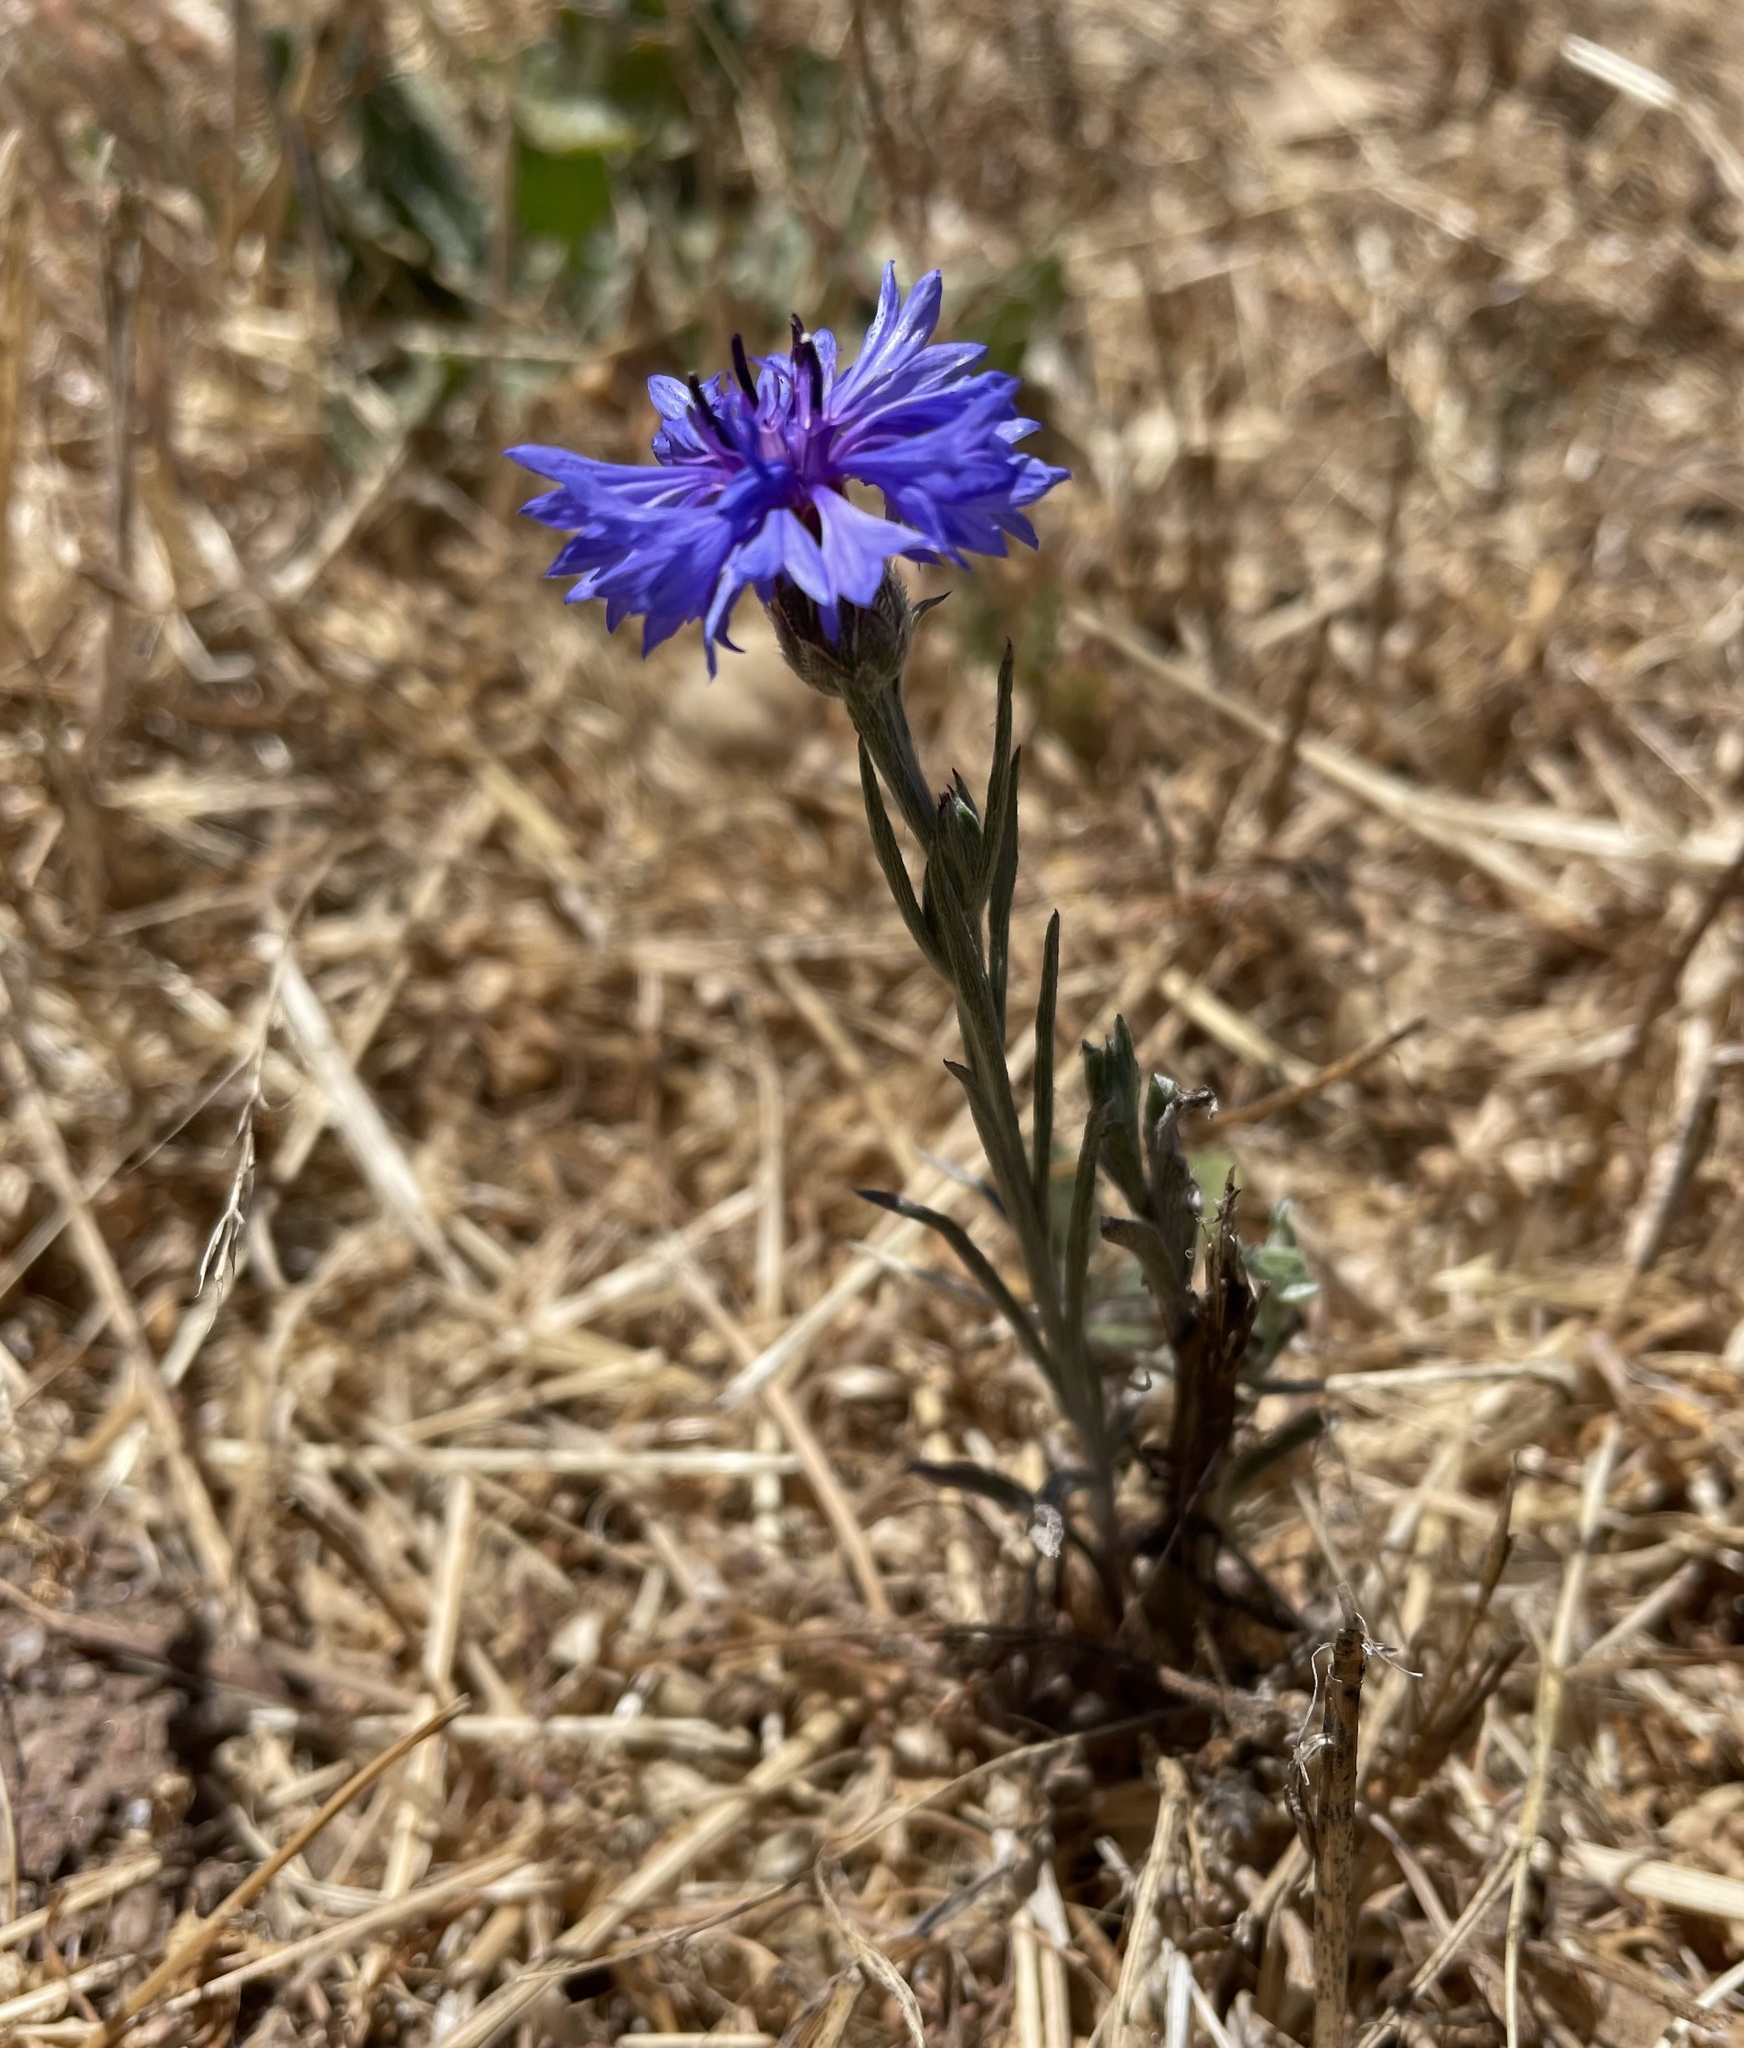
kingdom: Plantae
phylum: Tracheophyta
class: Magnoliopsida
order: Asterales
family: Asteraceae
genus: Centaurea
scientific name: Centaurea cyanus
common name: Cornflower
